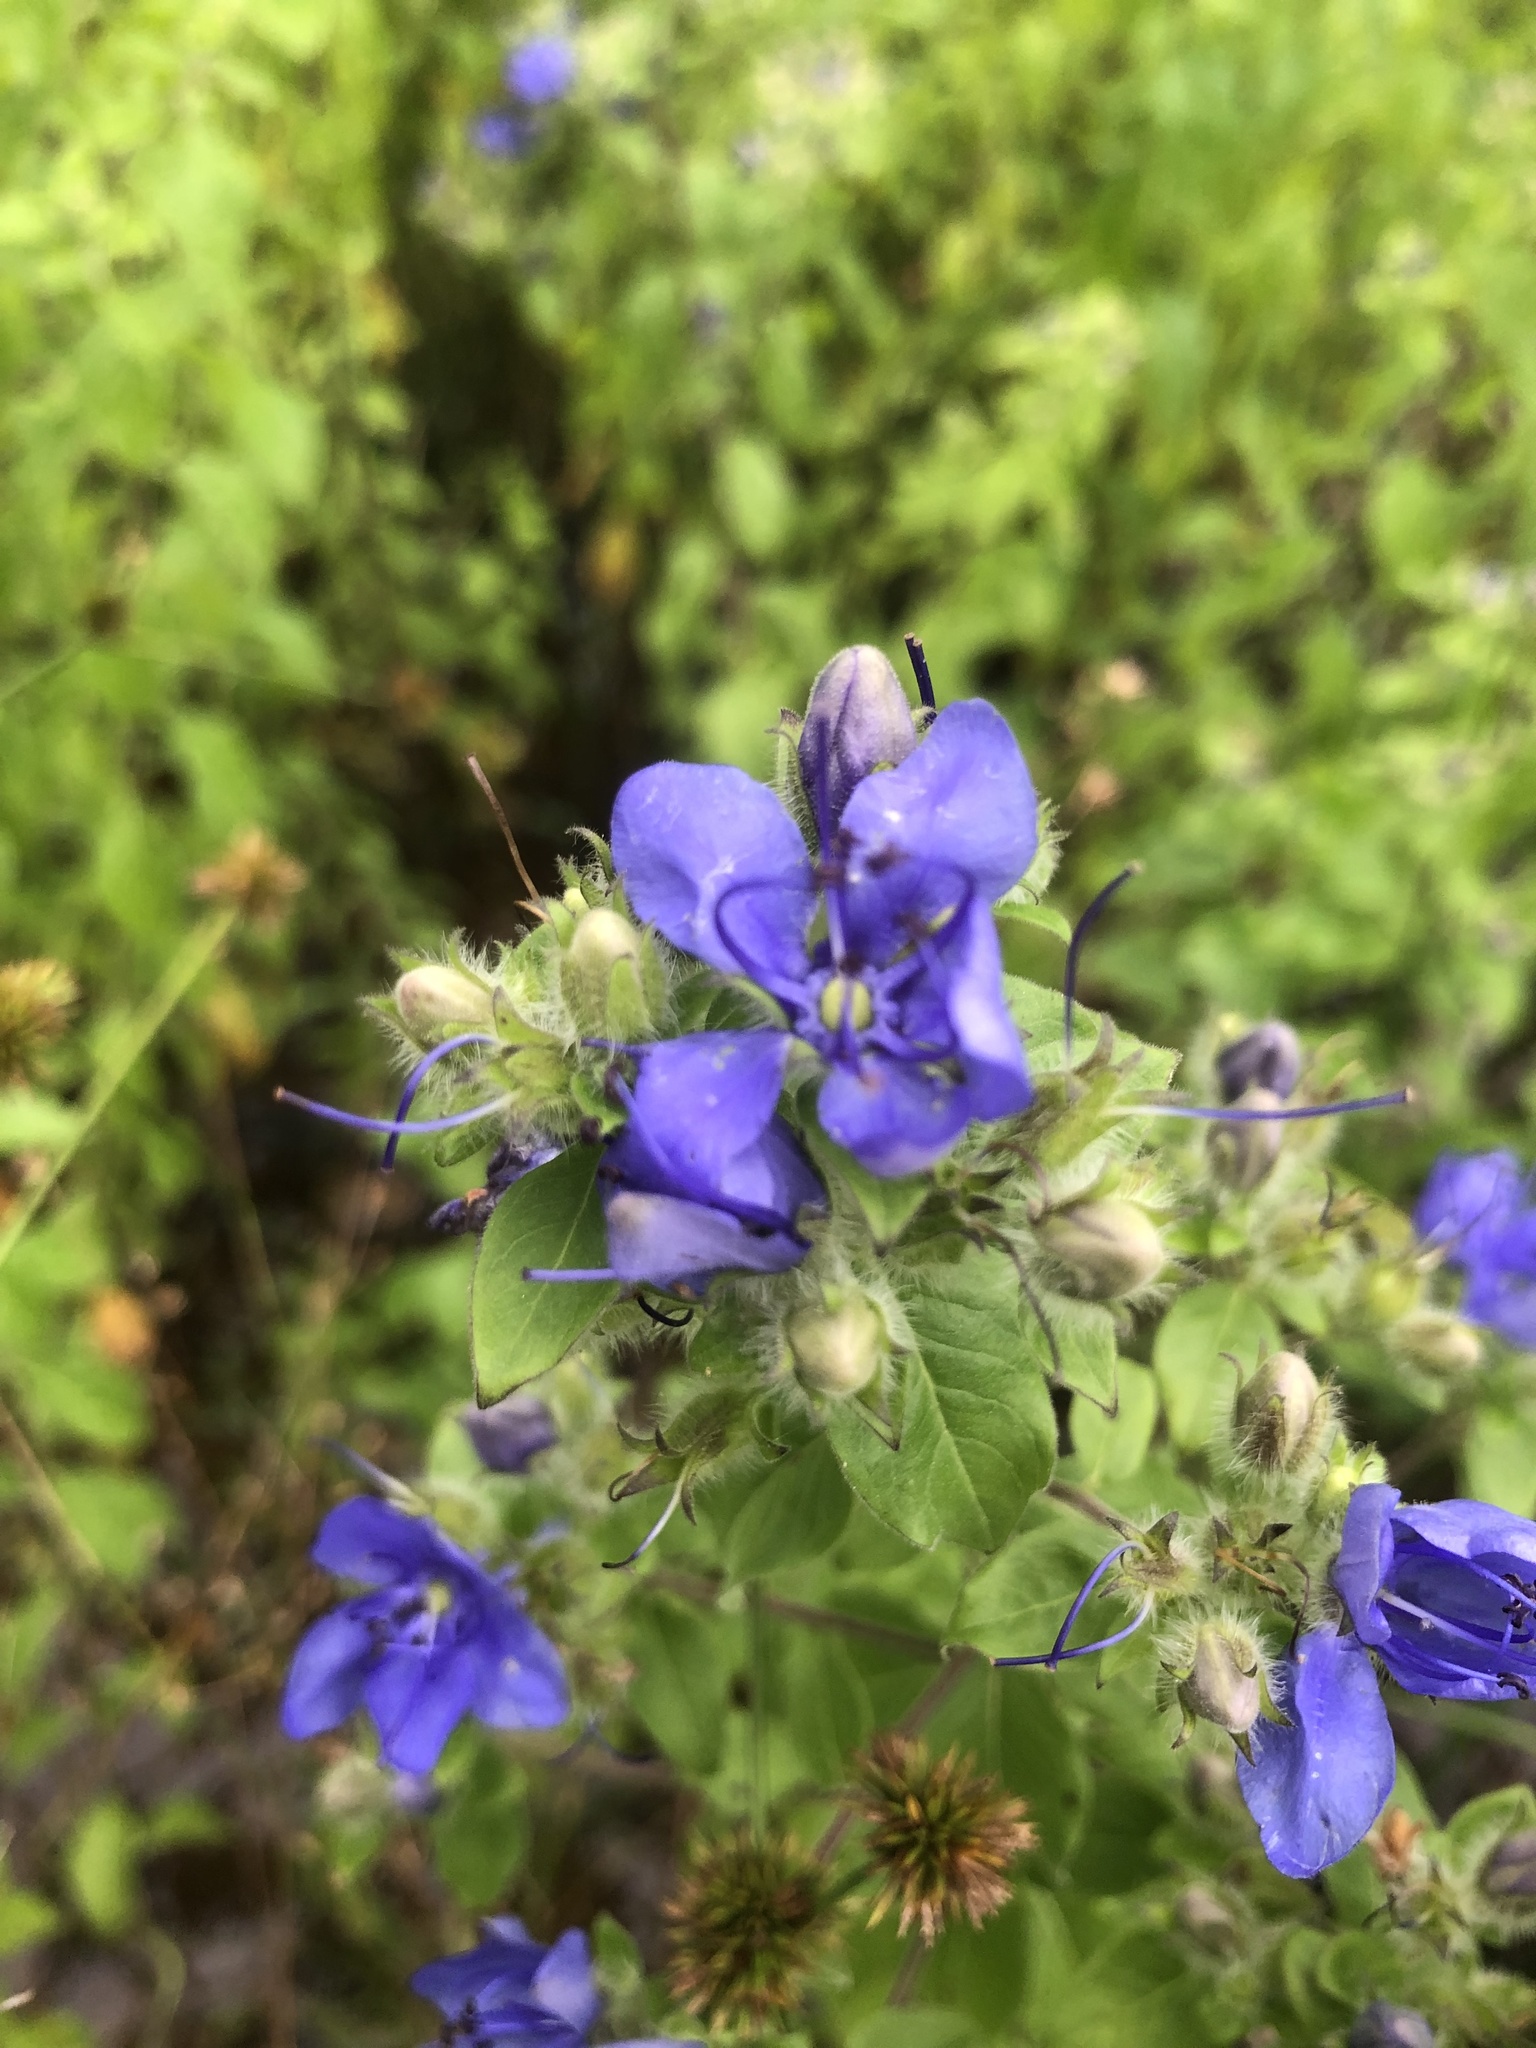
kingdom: Plantae
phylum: Tracheophyta
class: Magnoliopsida
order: Solanales
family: Hydroleaceae
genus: Hydrolea
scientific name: Hydrolea ovata
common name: Ovate false fiddleleaf
